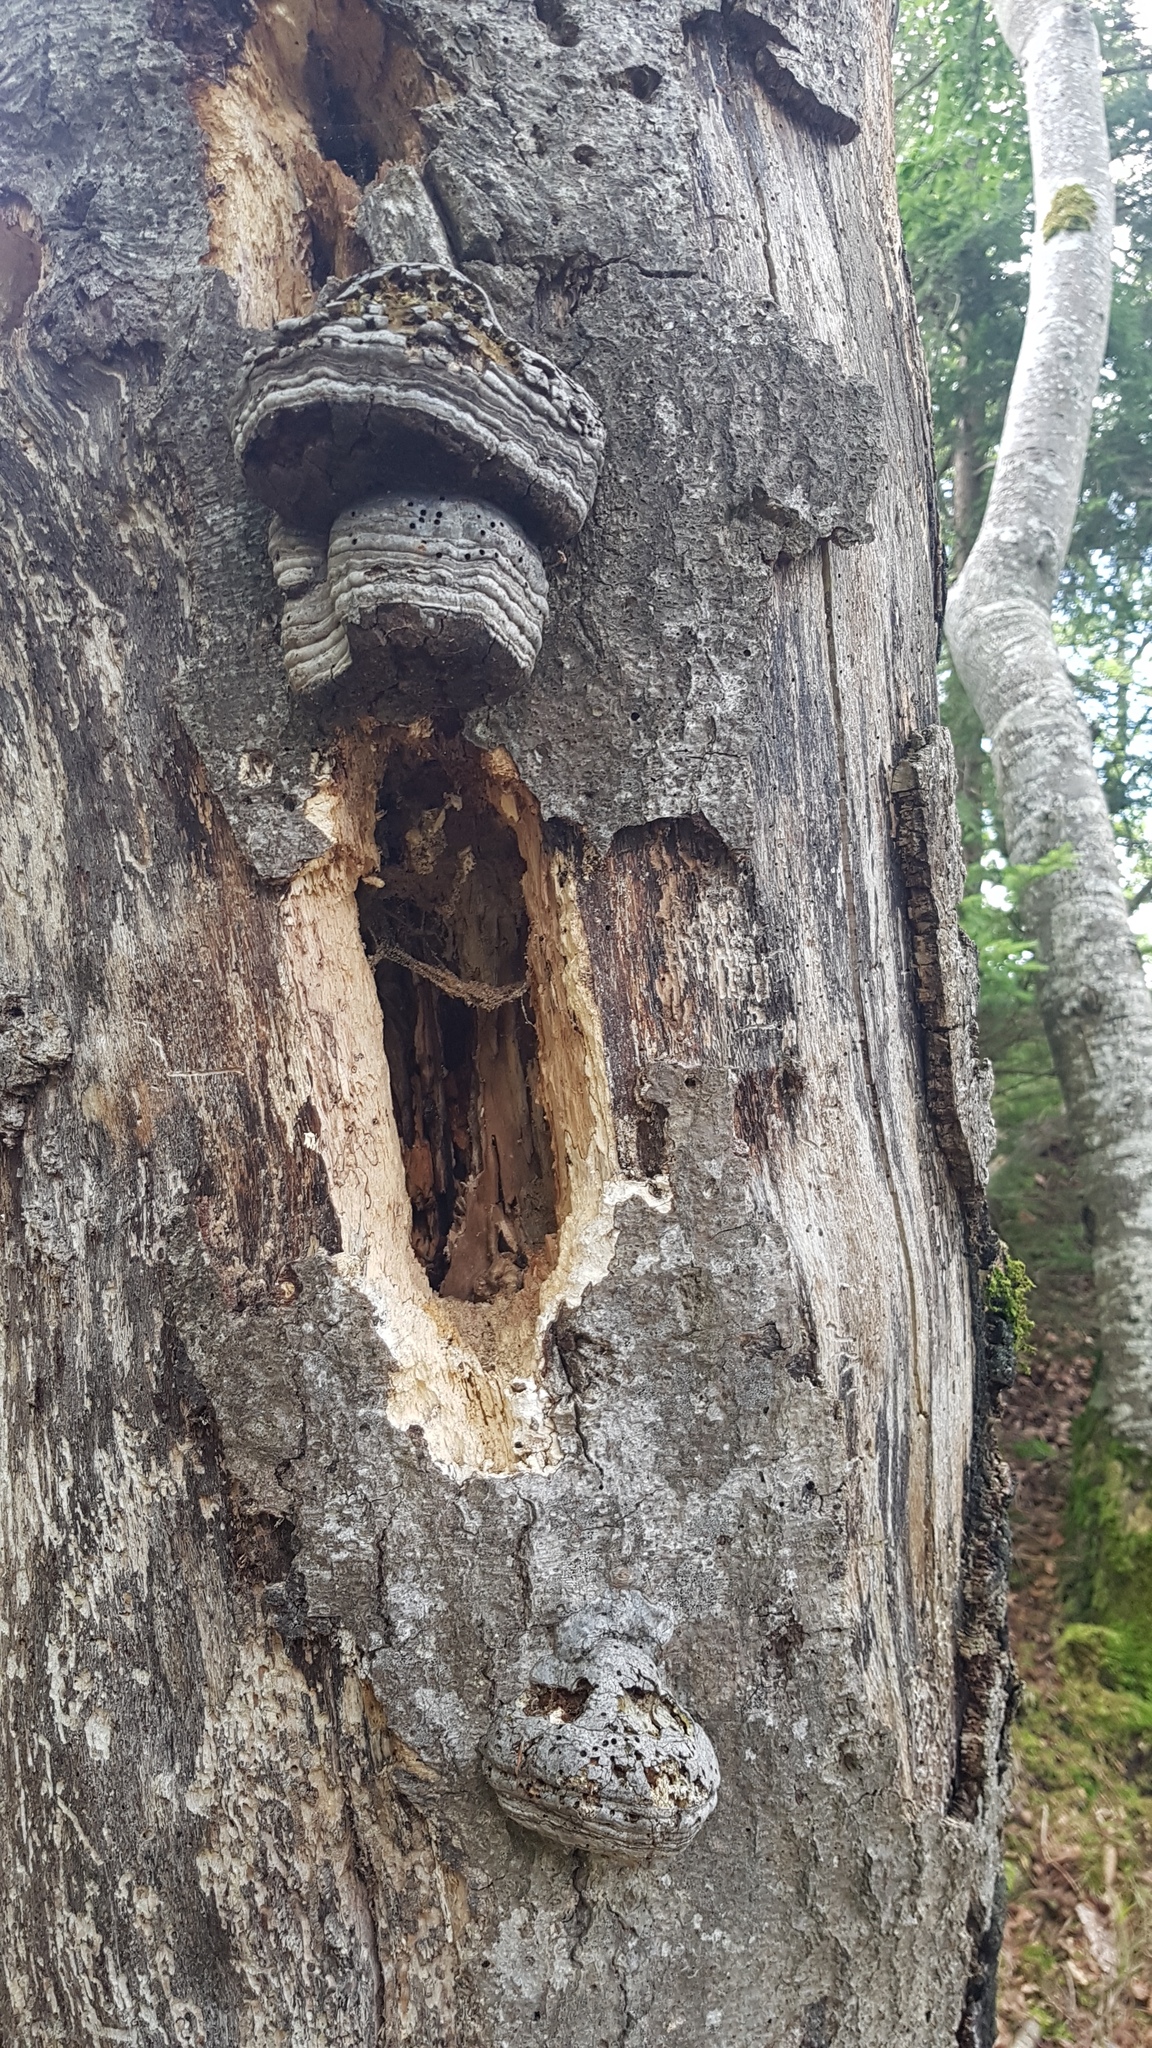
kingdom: Fungi
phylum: Basidiomycota
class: Agaricomycetes
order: Polyporales
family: Polyporaceae
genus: Fomes
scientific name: Fomes fomentarius
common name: Hoof fungus
